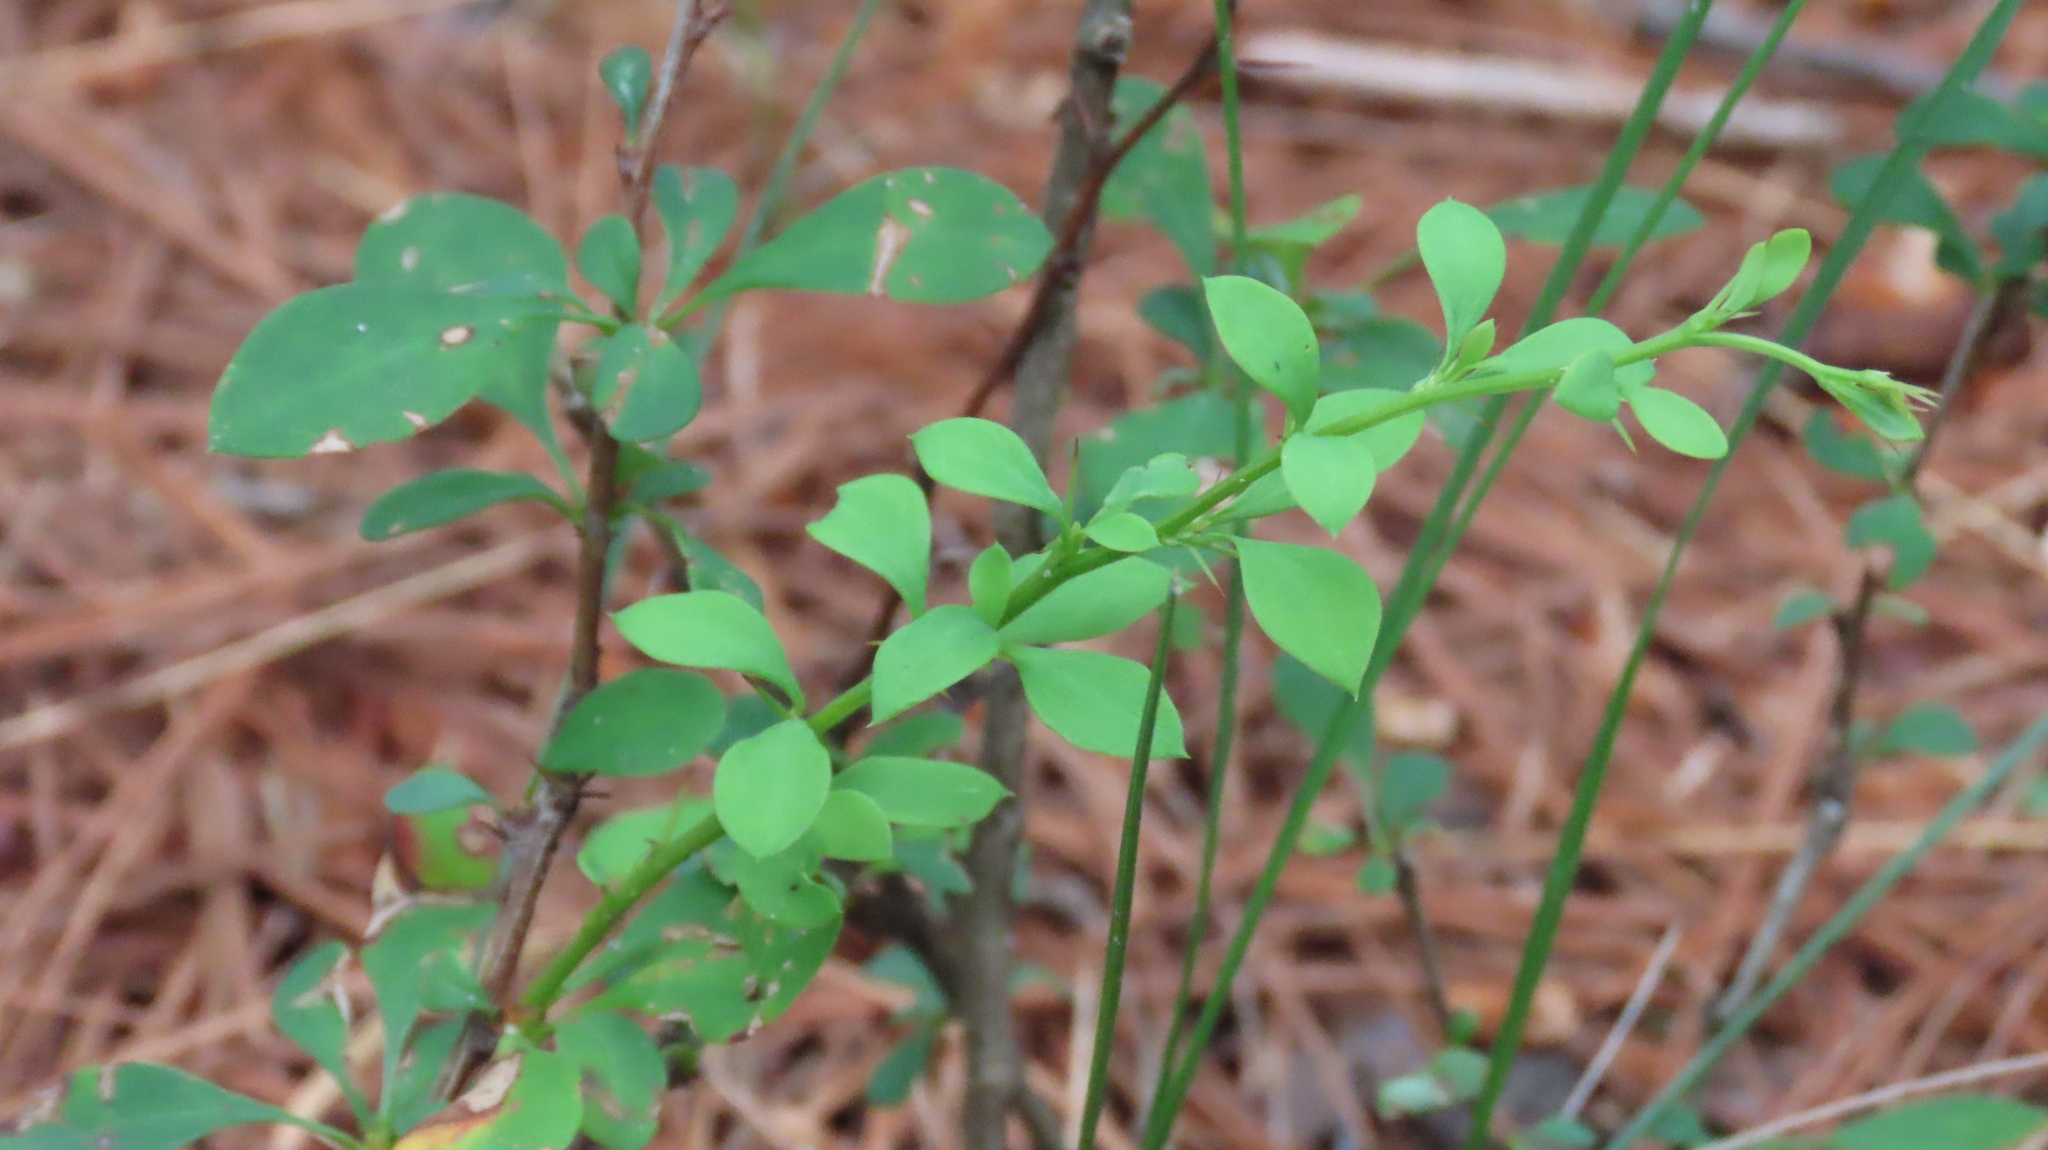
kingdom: Plantae
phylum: Tracheophyta
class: Magnoliopsida
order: Ranunculales
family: Berberidaceae
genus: Berberis
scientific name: Berberis thunbergii
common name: Japanese barberry
